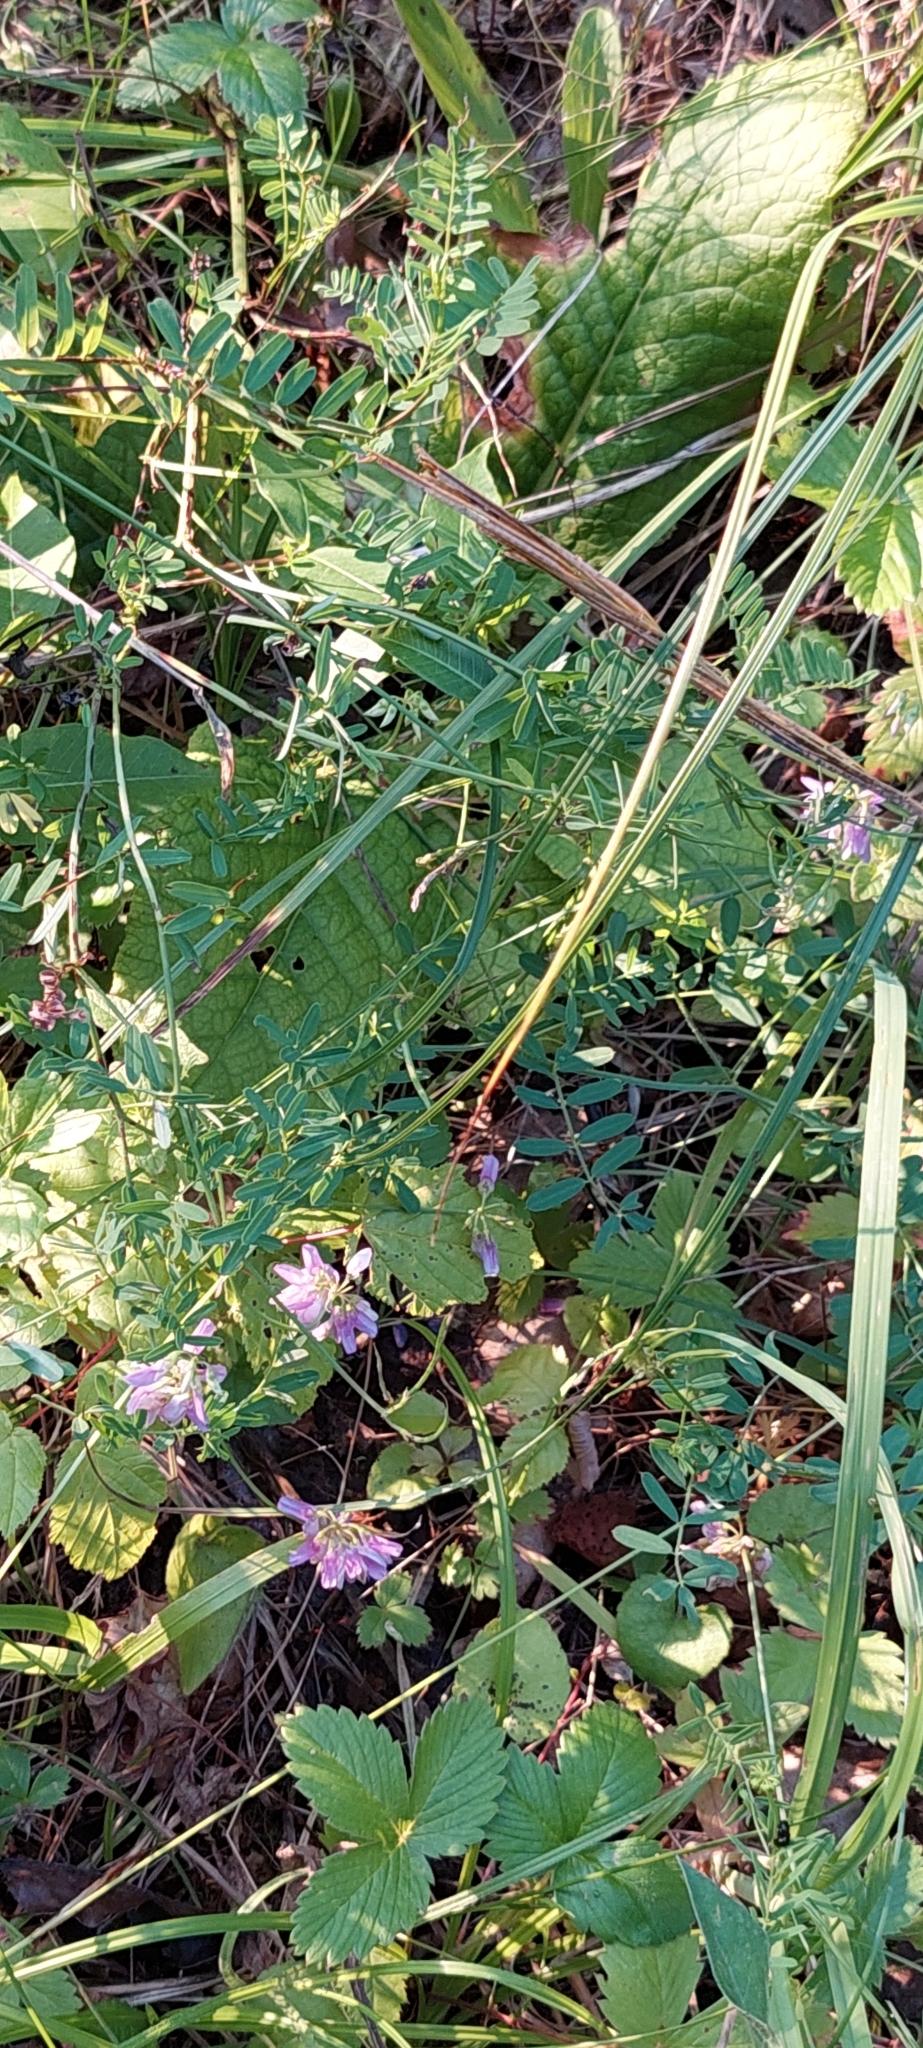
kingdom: Plantae
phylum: Tracheophyta
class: Magnoliopsida
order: Fabales
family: Fabaceae
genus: Coronilla
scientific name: Coronilla varia
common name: Crownvetch
